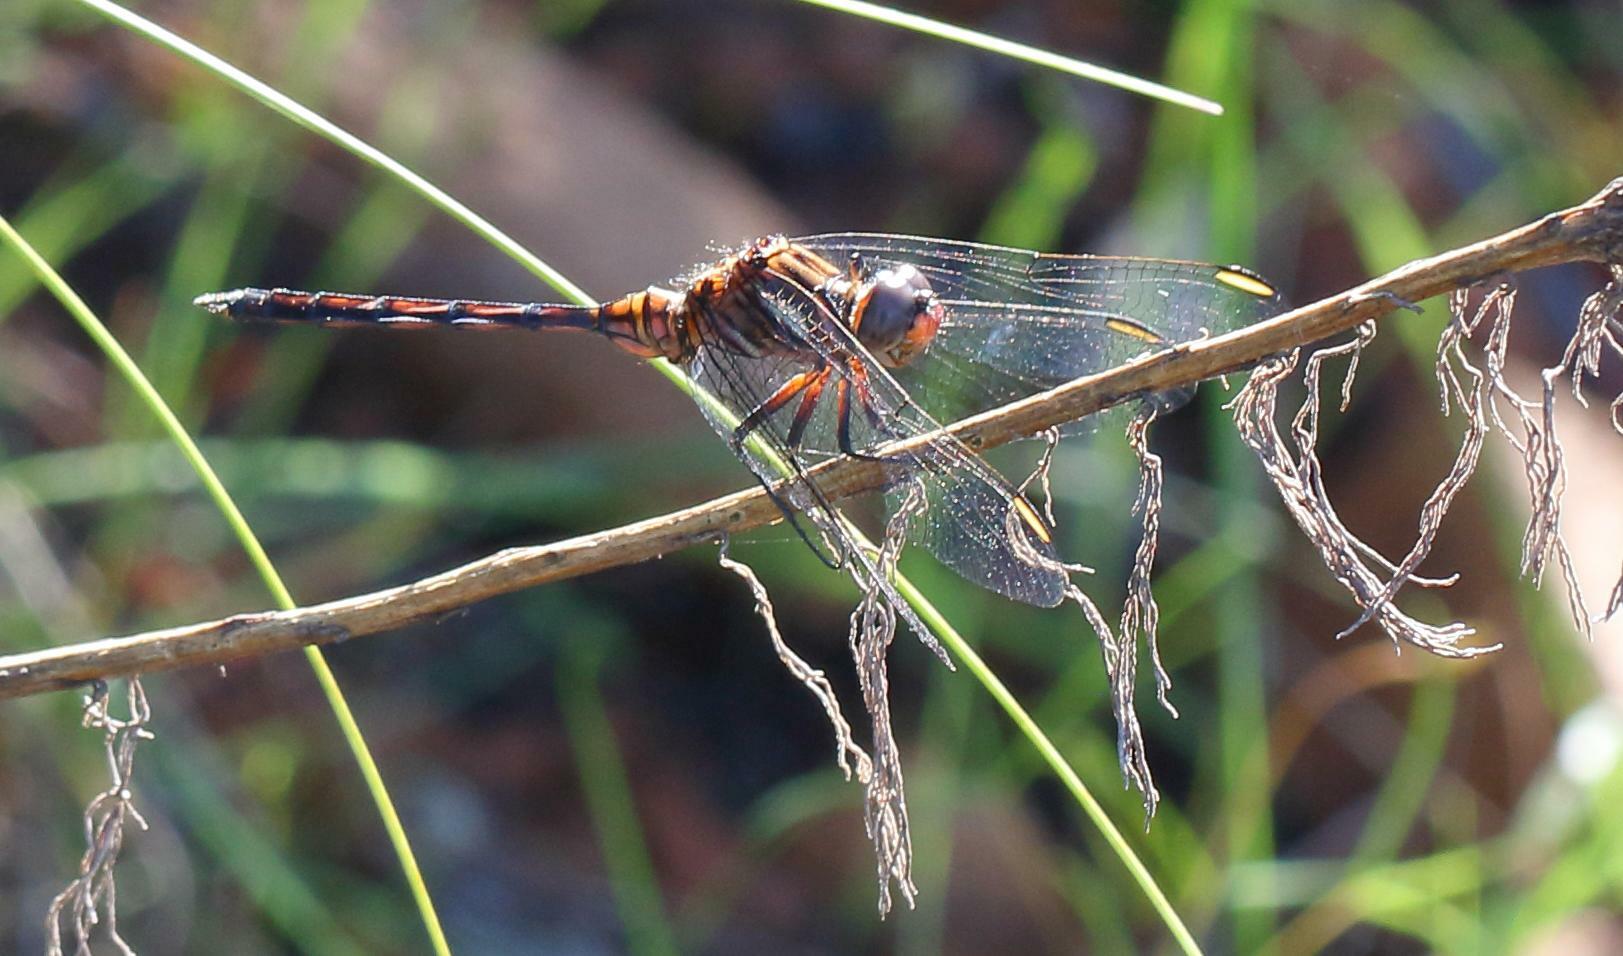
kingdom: Animalia
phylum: Arthropoda
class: Insecta
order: Odonata
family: Libellulidae
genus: Orthetrum
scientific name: Orthetrum julia
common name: Julia skimmer
